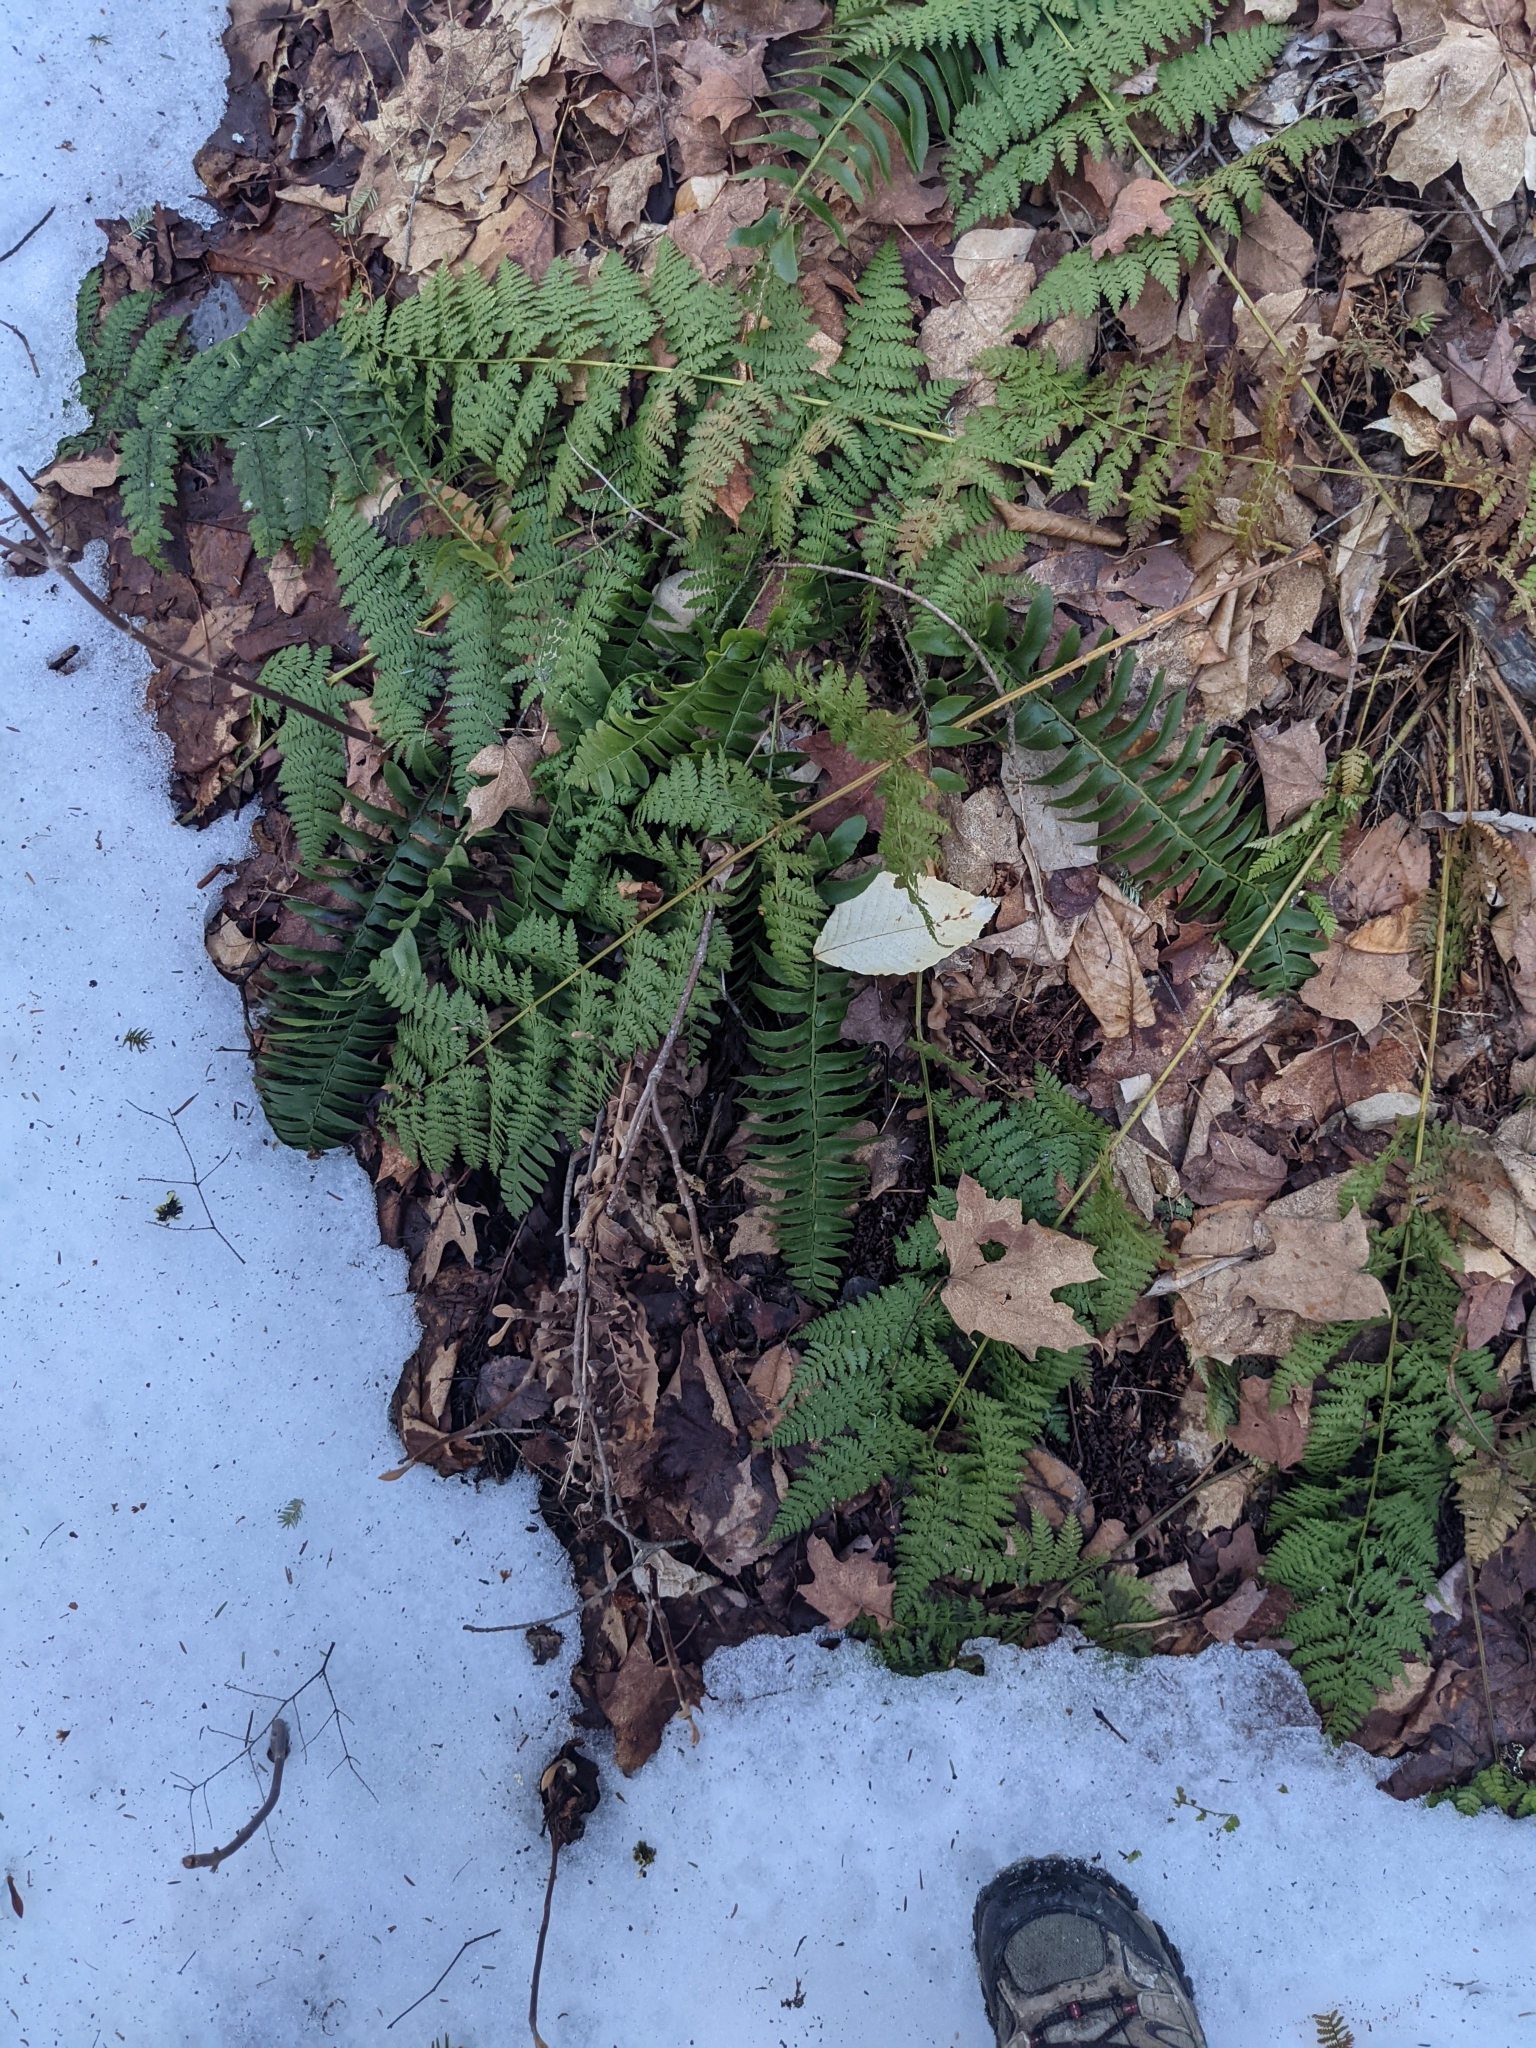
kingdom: Plantae
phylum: Tracheophyta
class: Polypodiopsida
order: Polypodiales
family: Dryopteridaceae
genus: Polystichum
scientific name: Polystichum acrostichoides
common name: Christmas fern
